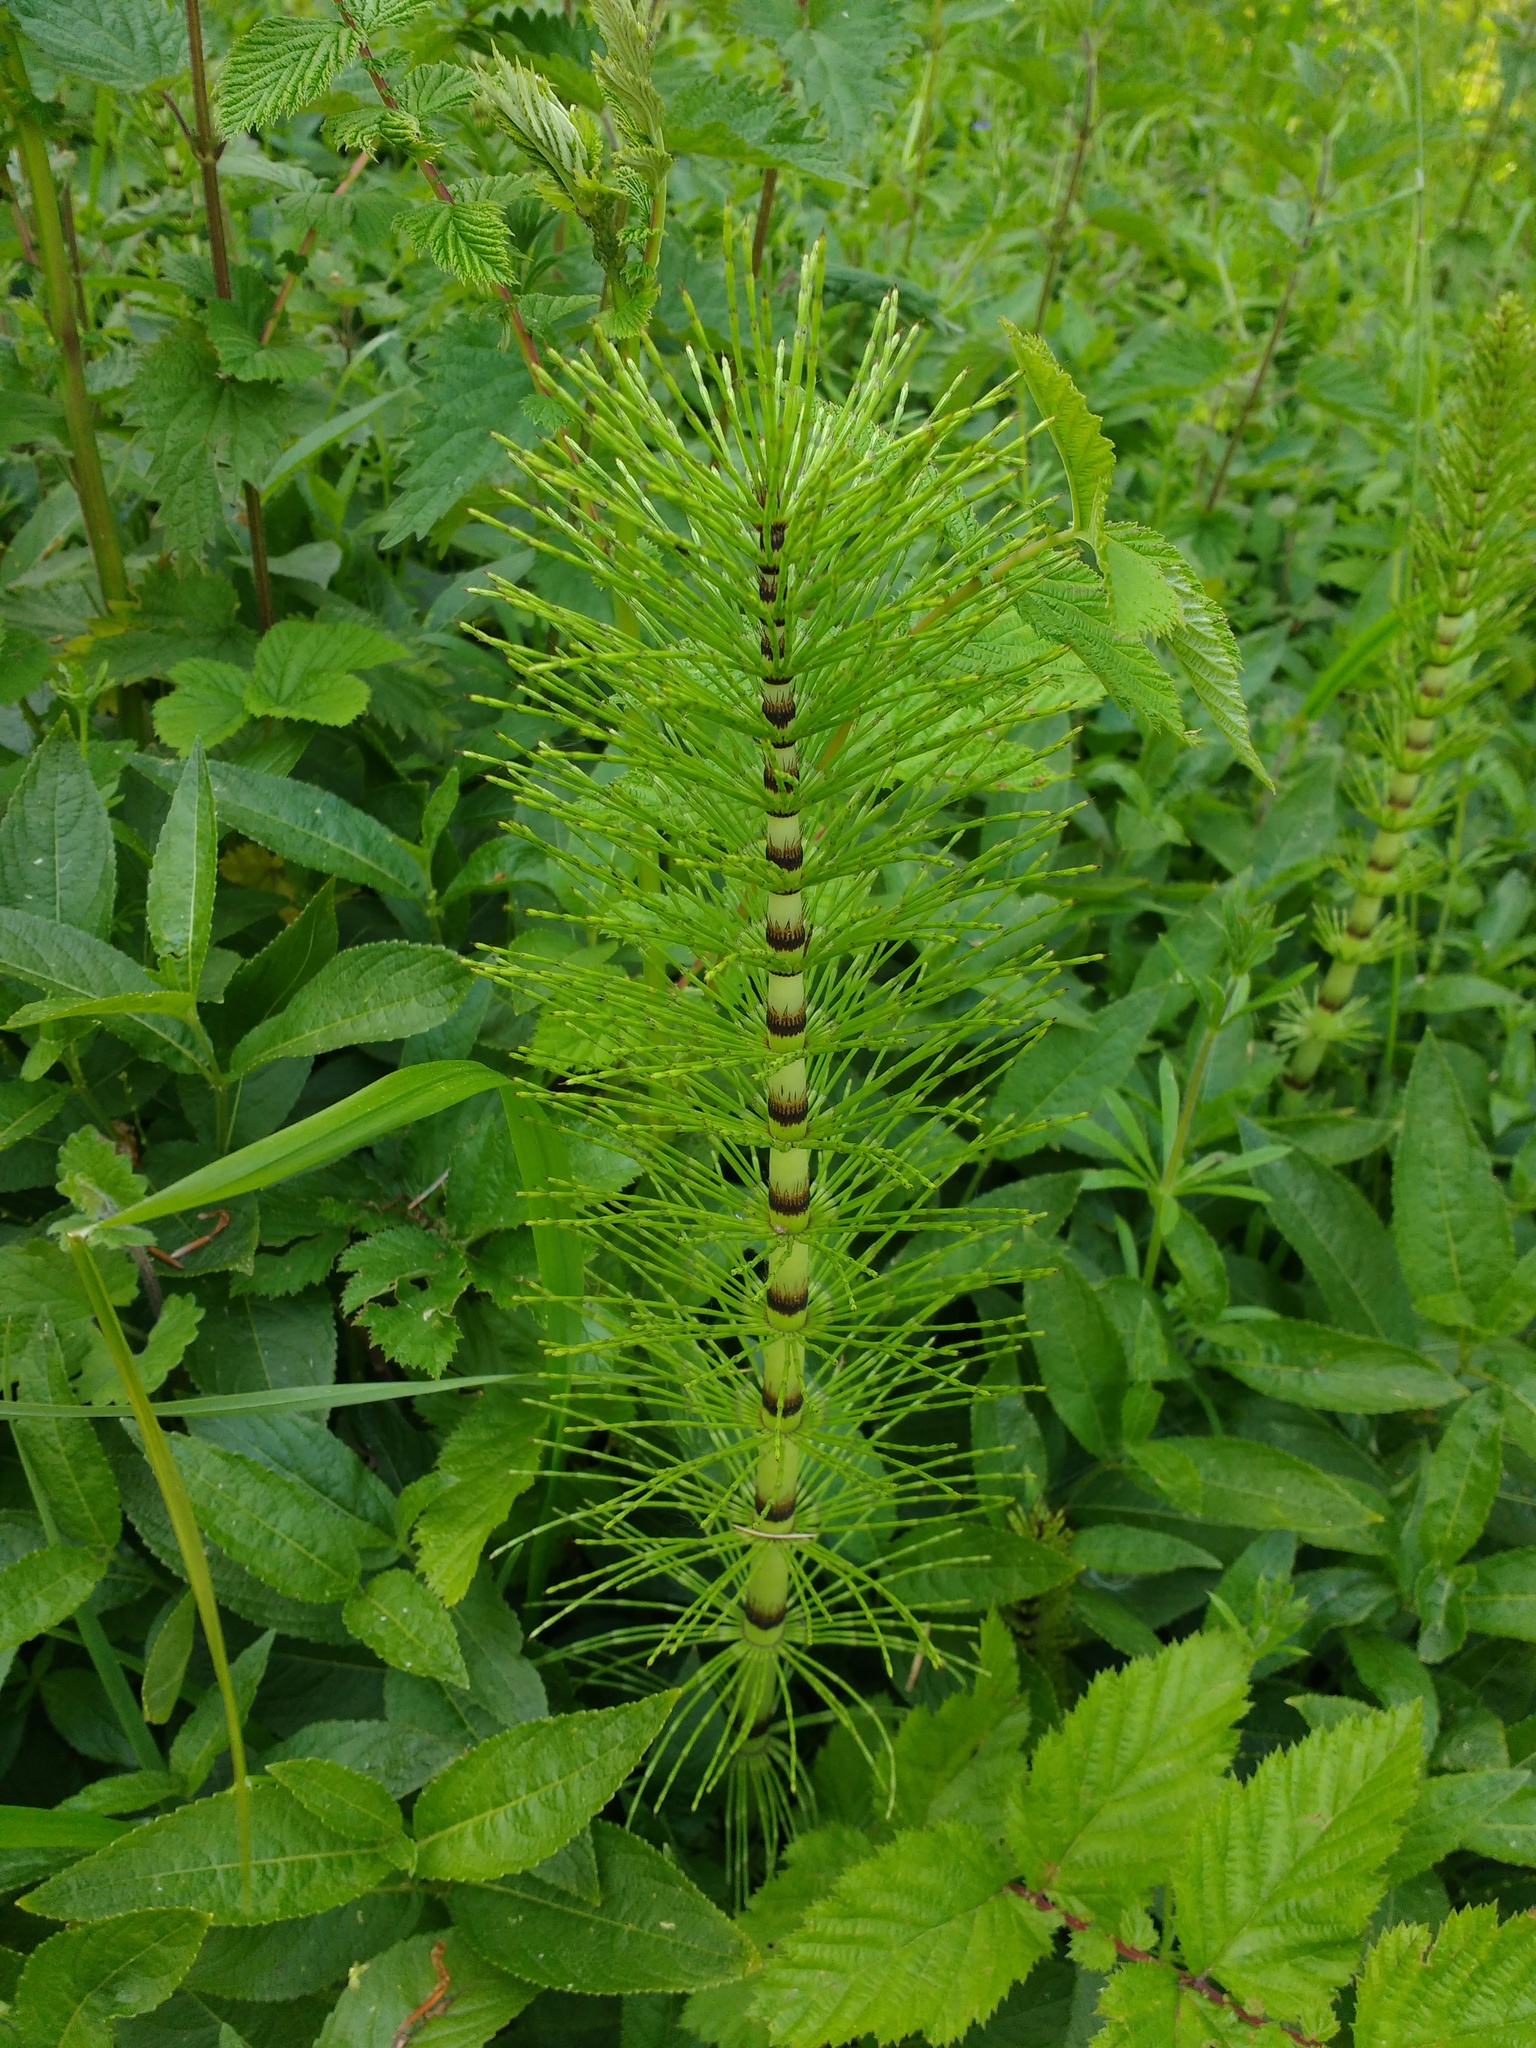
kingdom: Plantae
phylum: Tracheophyta
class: Polypodiopsida
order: Equisetales
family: Equisetaceae
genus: Equisetum
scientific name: Equisetum telmateia
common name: Great horsetail
